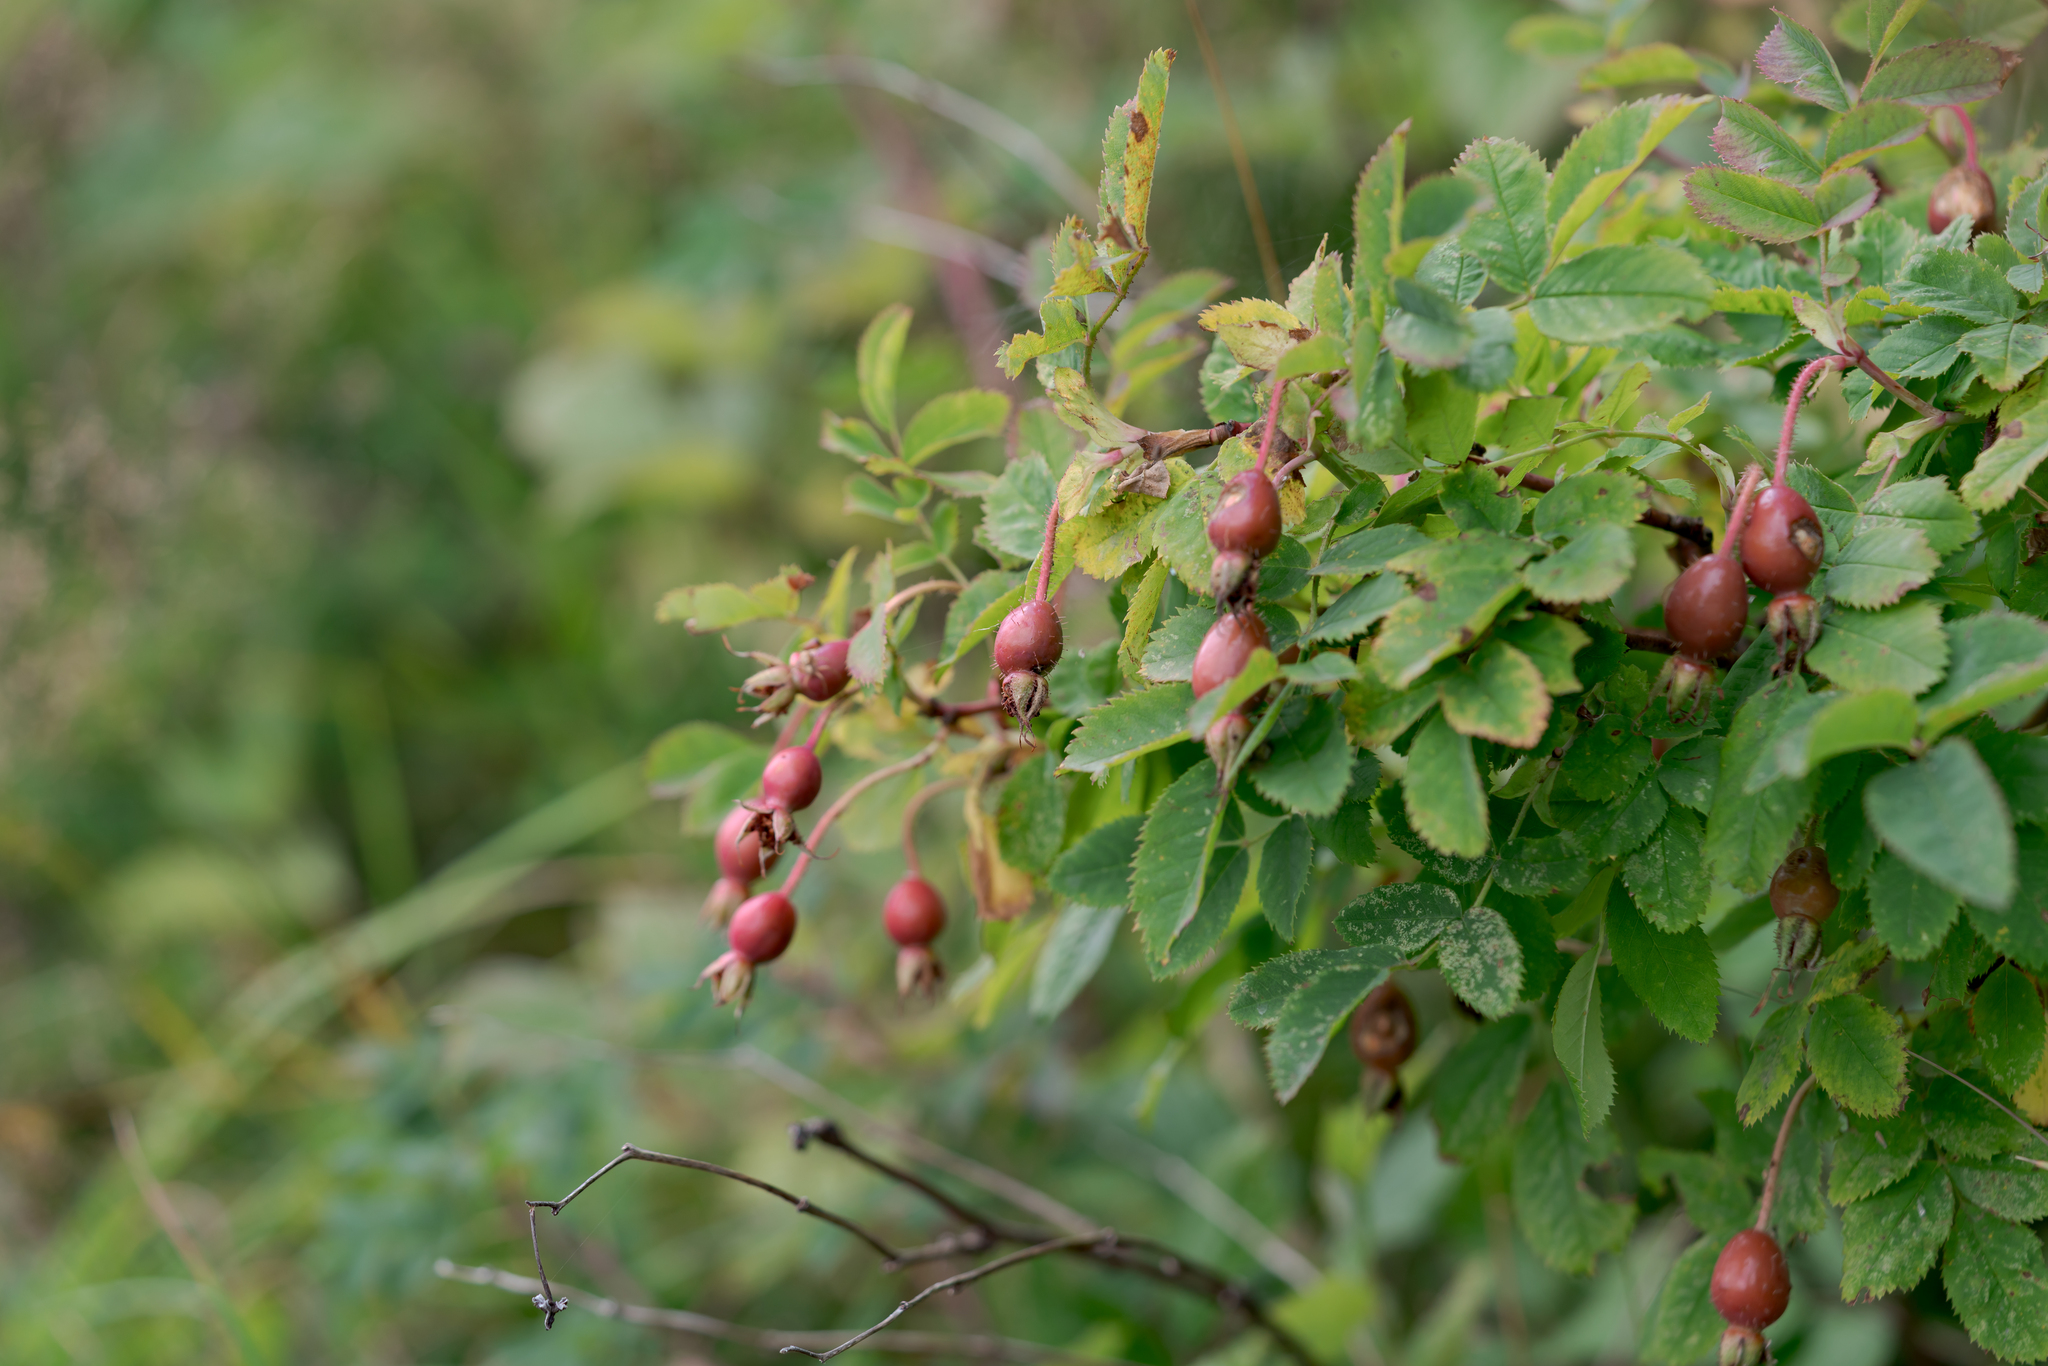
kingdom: Plantae
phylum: Tracheophyta
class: Magnoliopsida
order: Rosales
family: Rosaceae
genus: Rosa
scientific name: Rosa pendulina
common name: Alpine rose
